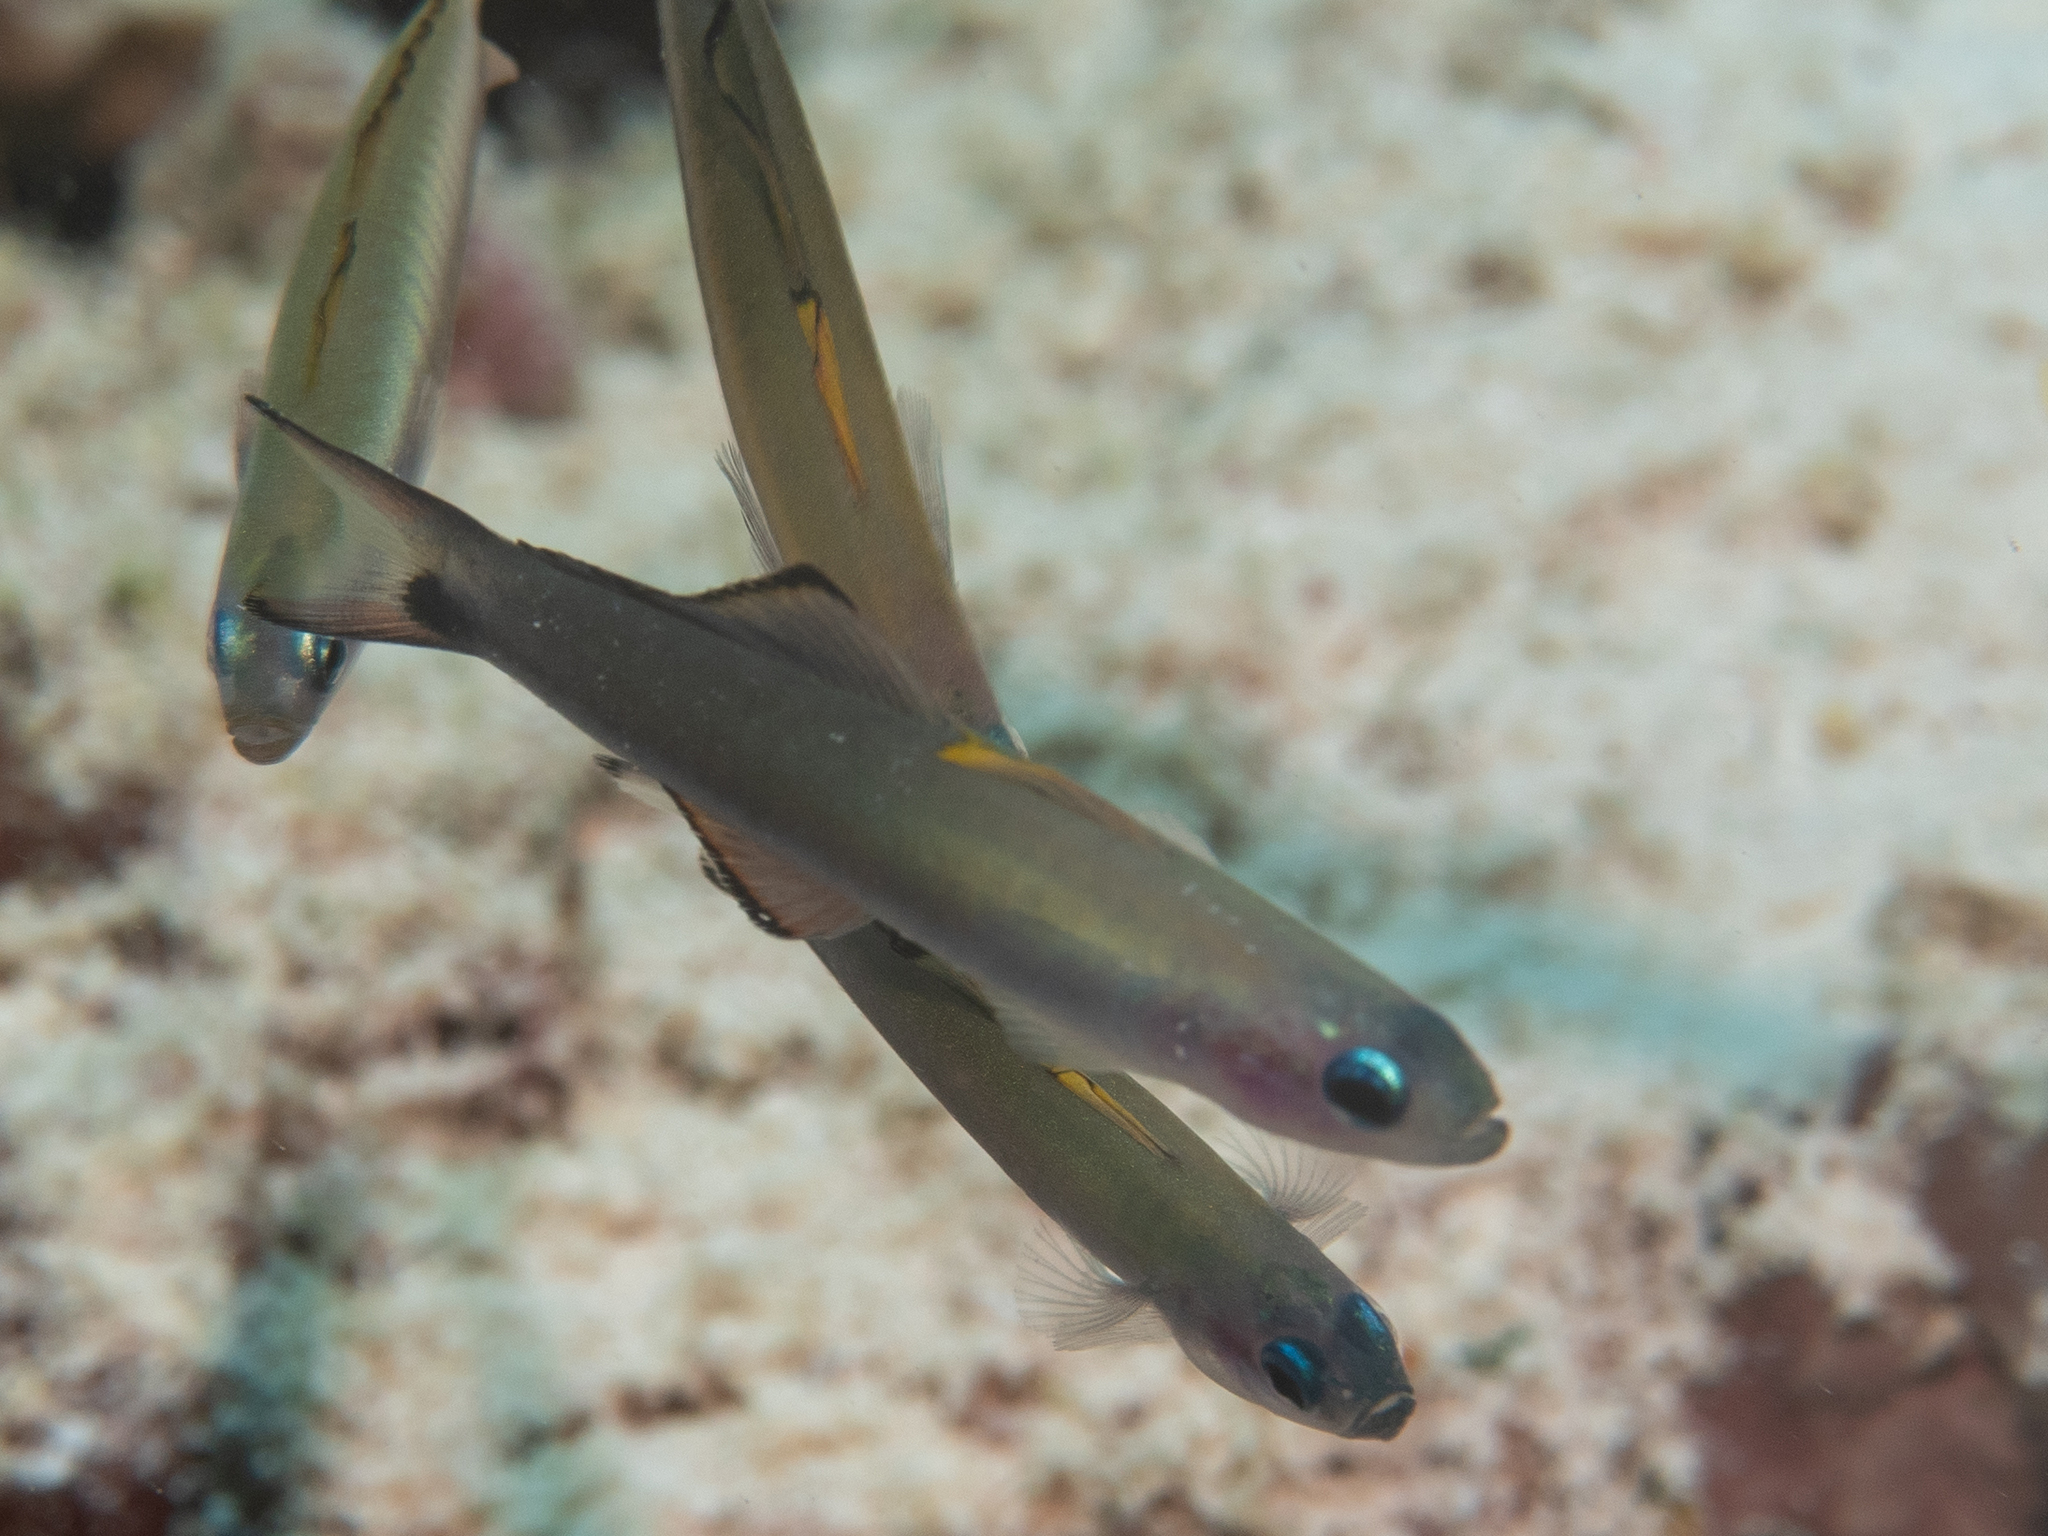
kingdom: Animalia
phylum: Chordata
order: Perciformes
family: Microdesmidae
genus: Ptereleotris
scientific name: Ptereleotris evides
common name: Blackfin dartfish
